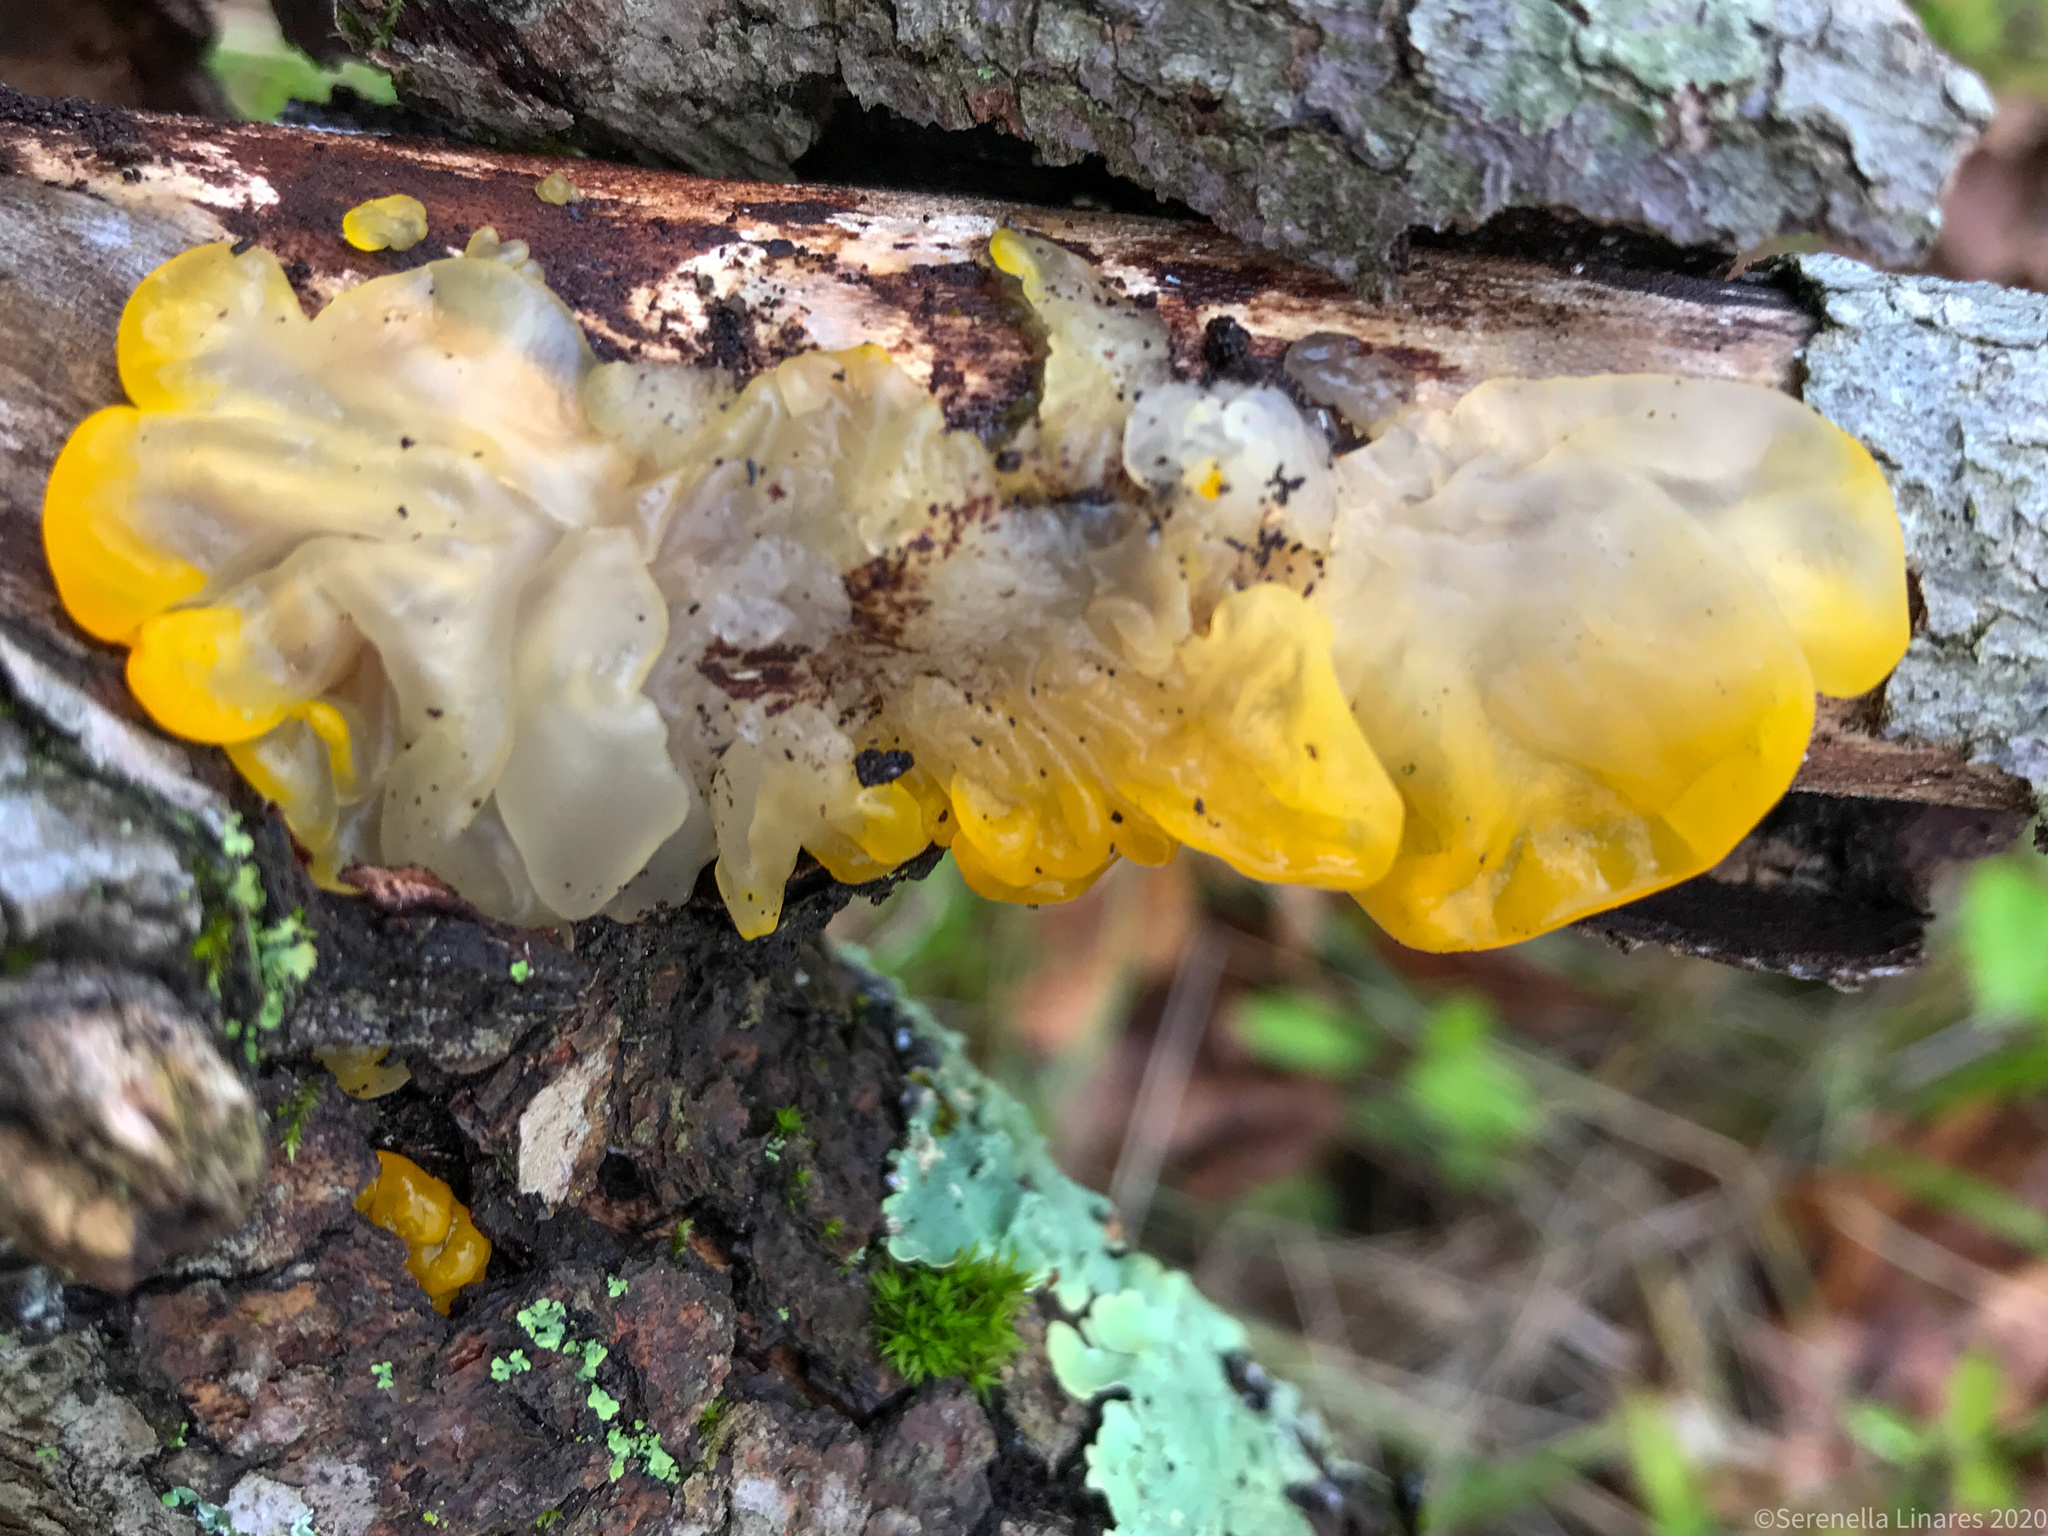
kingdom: Fungi
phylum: Basidiomycota
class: Tremellomycetes
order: Tremellales
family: Tremellaceae
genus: Tremella
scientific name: Tremella mesenterica
